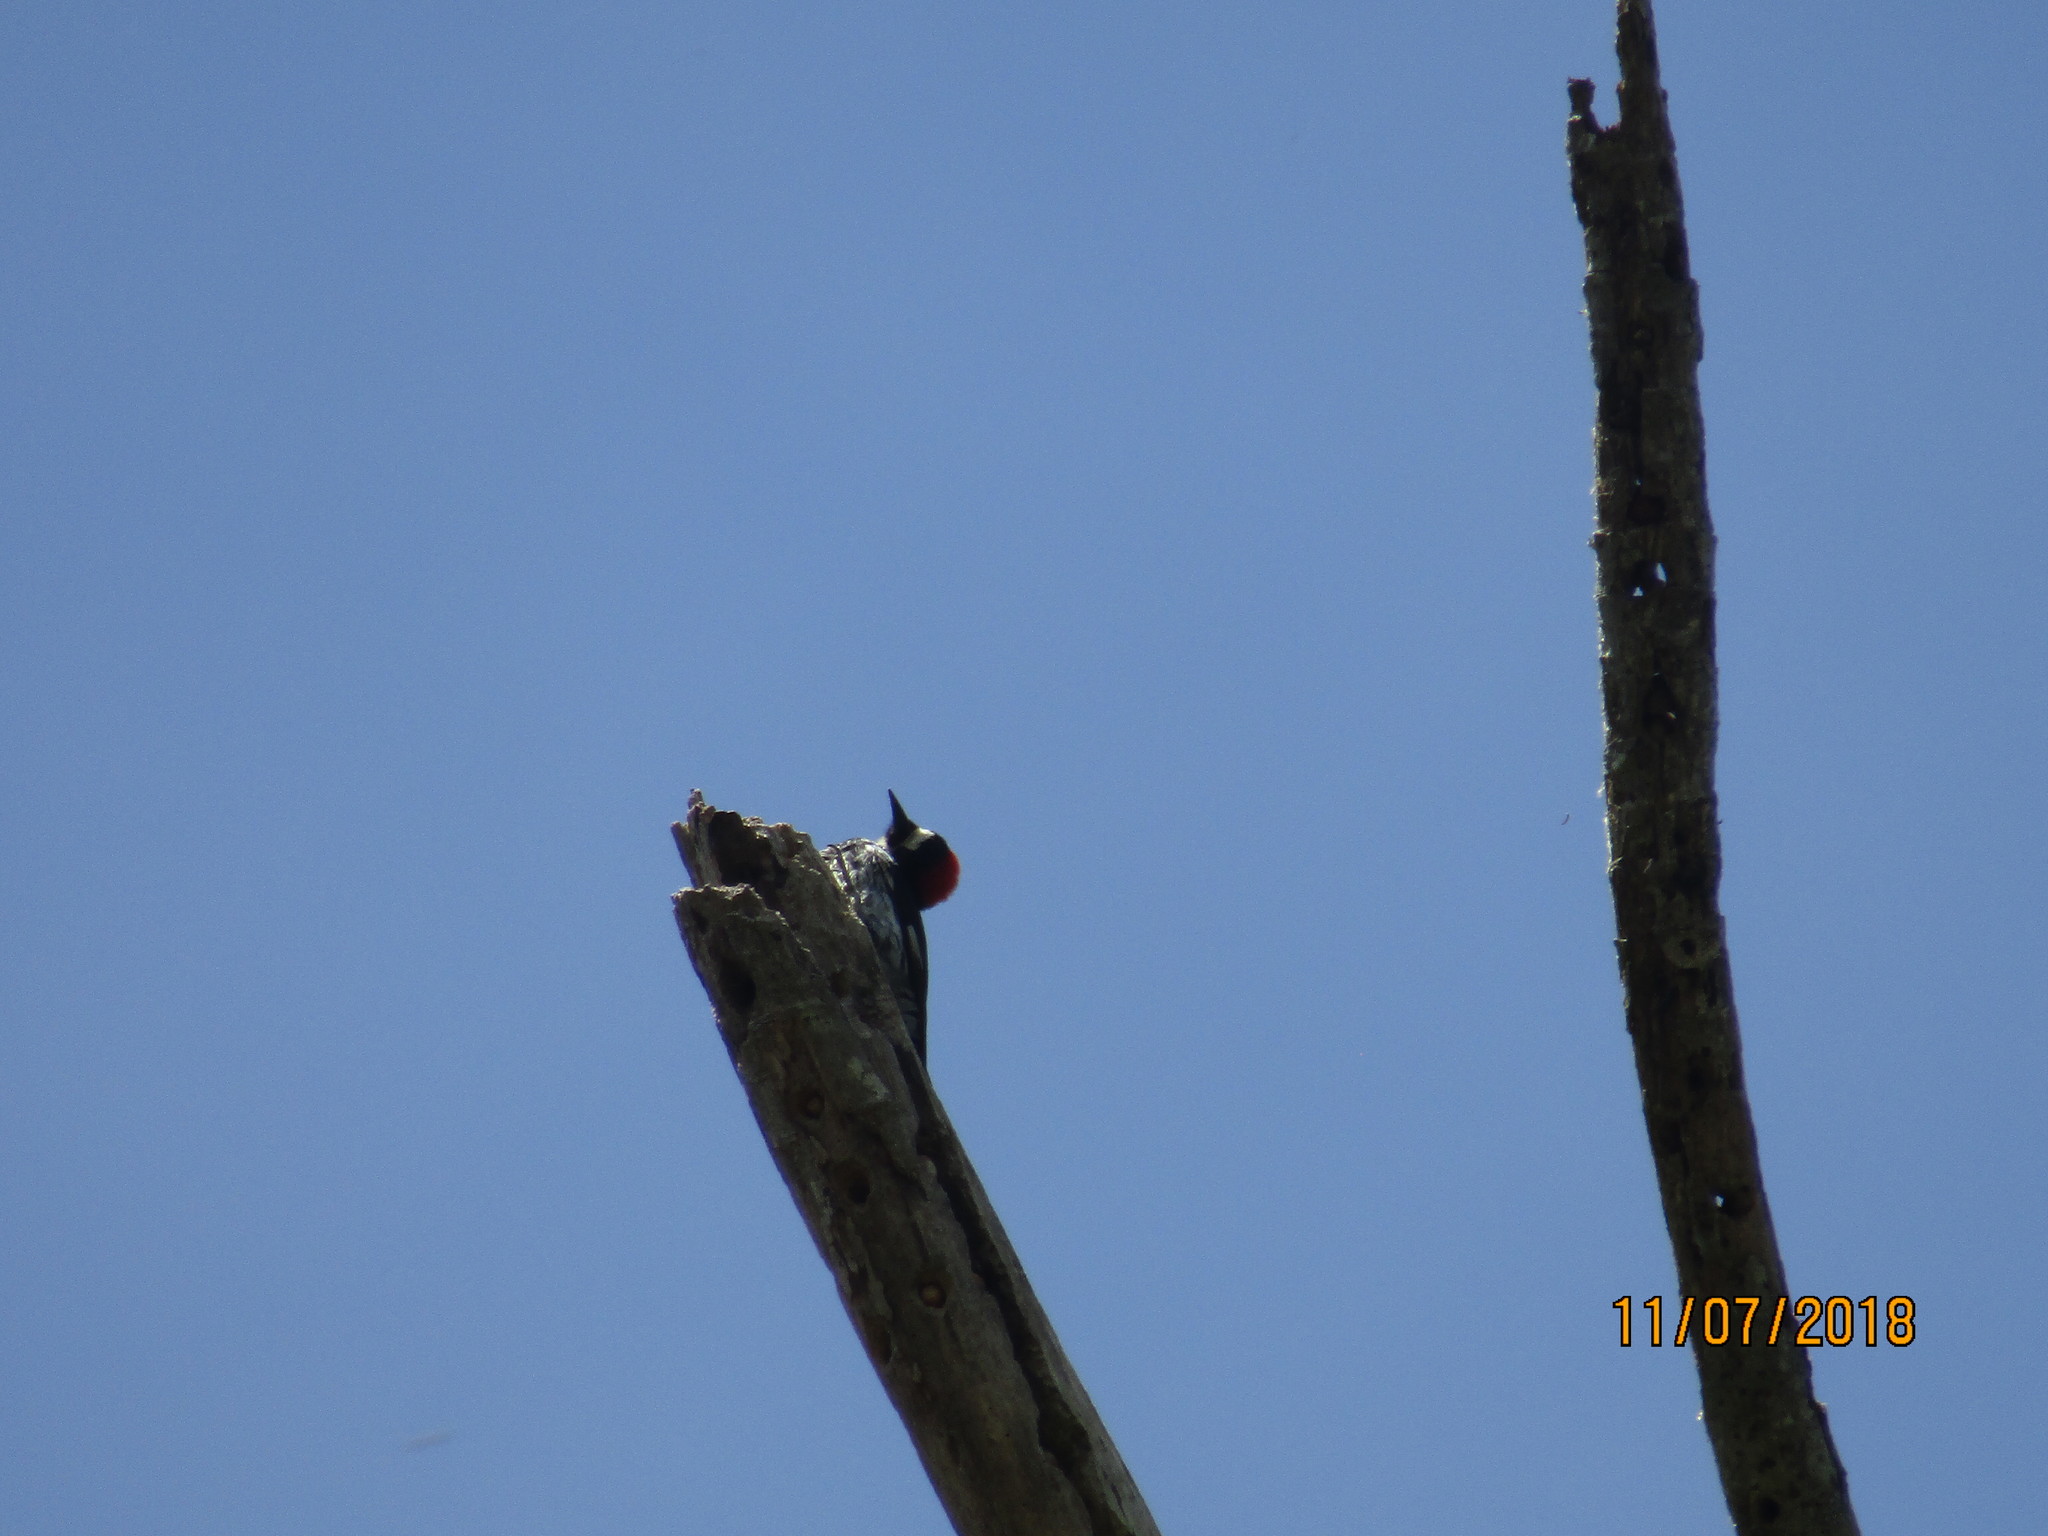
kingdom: Animalia
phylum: Chordata
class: Aves
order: Piciformes
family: Picidae
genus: Melanerpes
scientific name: Melanerpes formicivorus
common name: Acorn woodpecker
